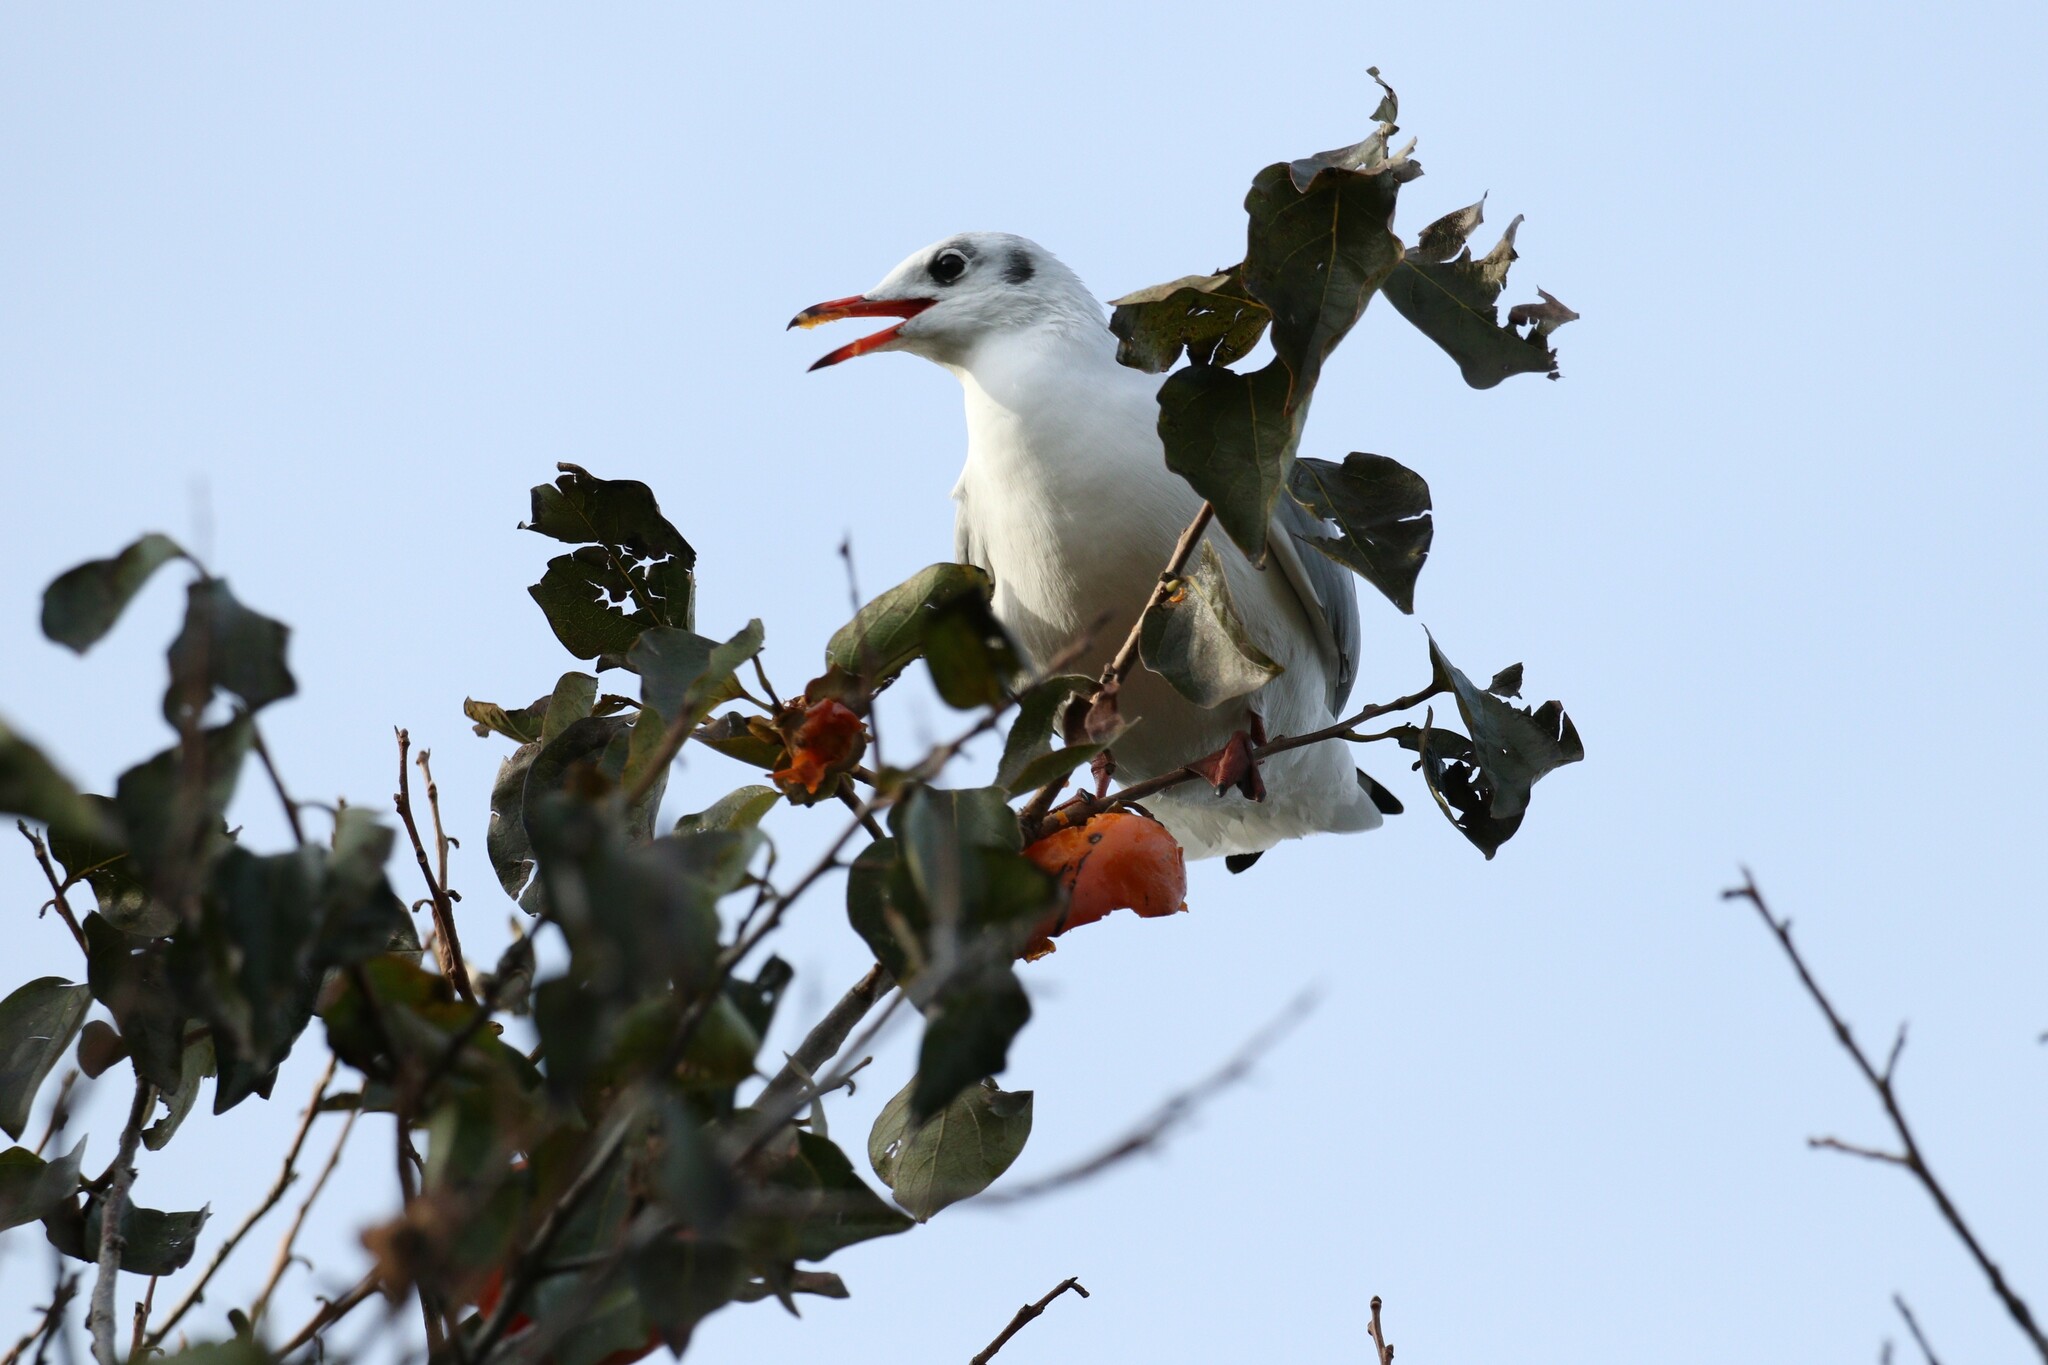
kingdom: Animalia
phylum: Chordata
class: Aves
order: Charadriiformes
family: Laridae
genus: Chroicocephalus
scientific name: Chroicocephalus ridibundus
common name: Black-headed gull
